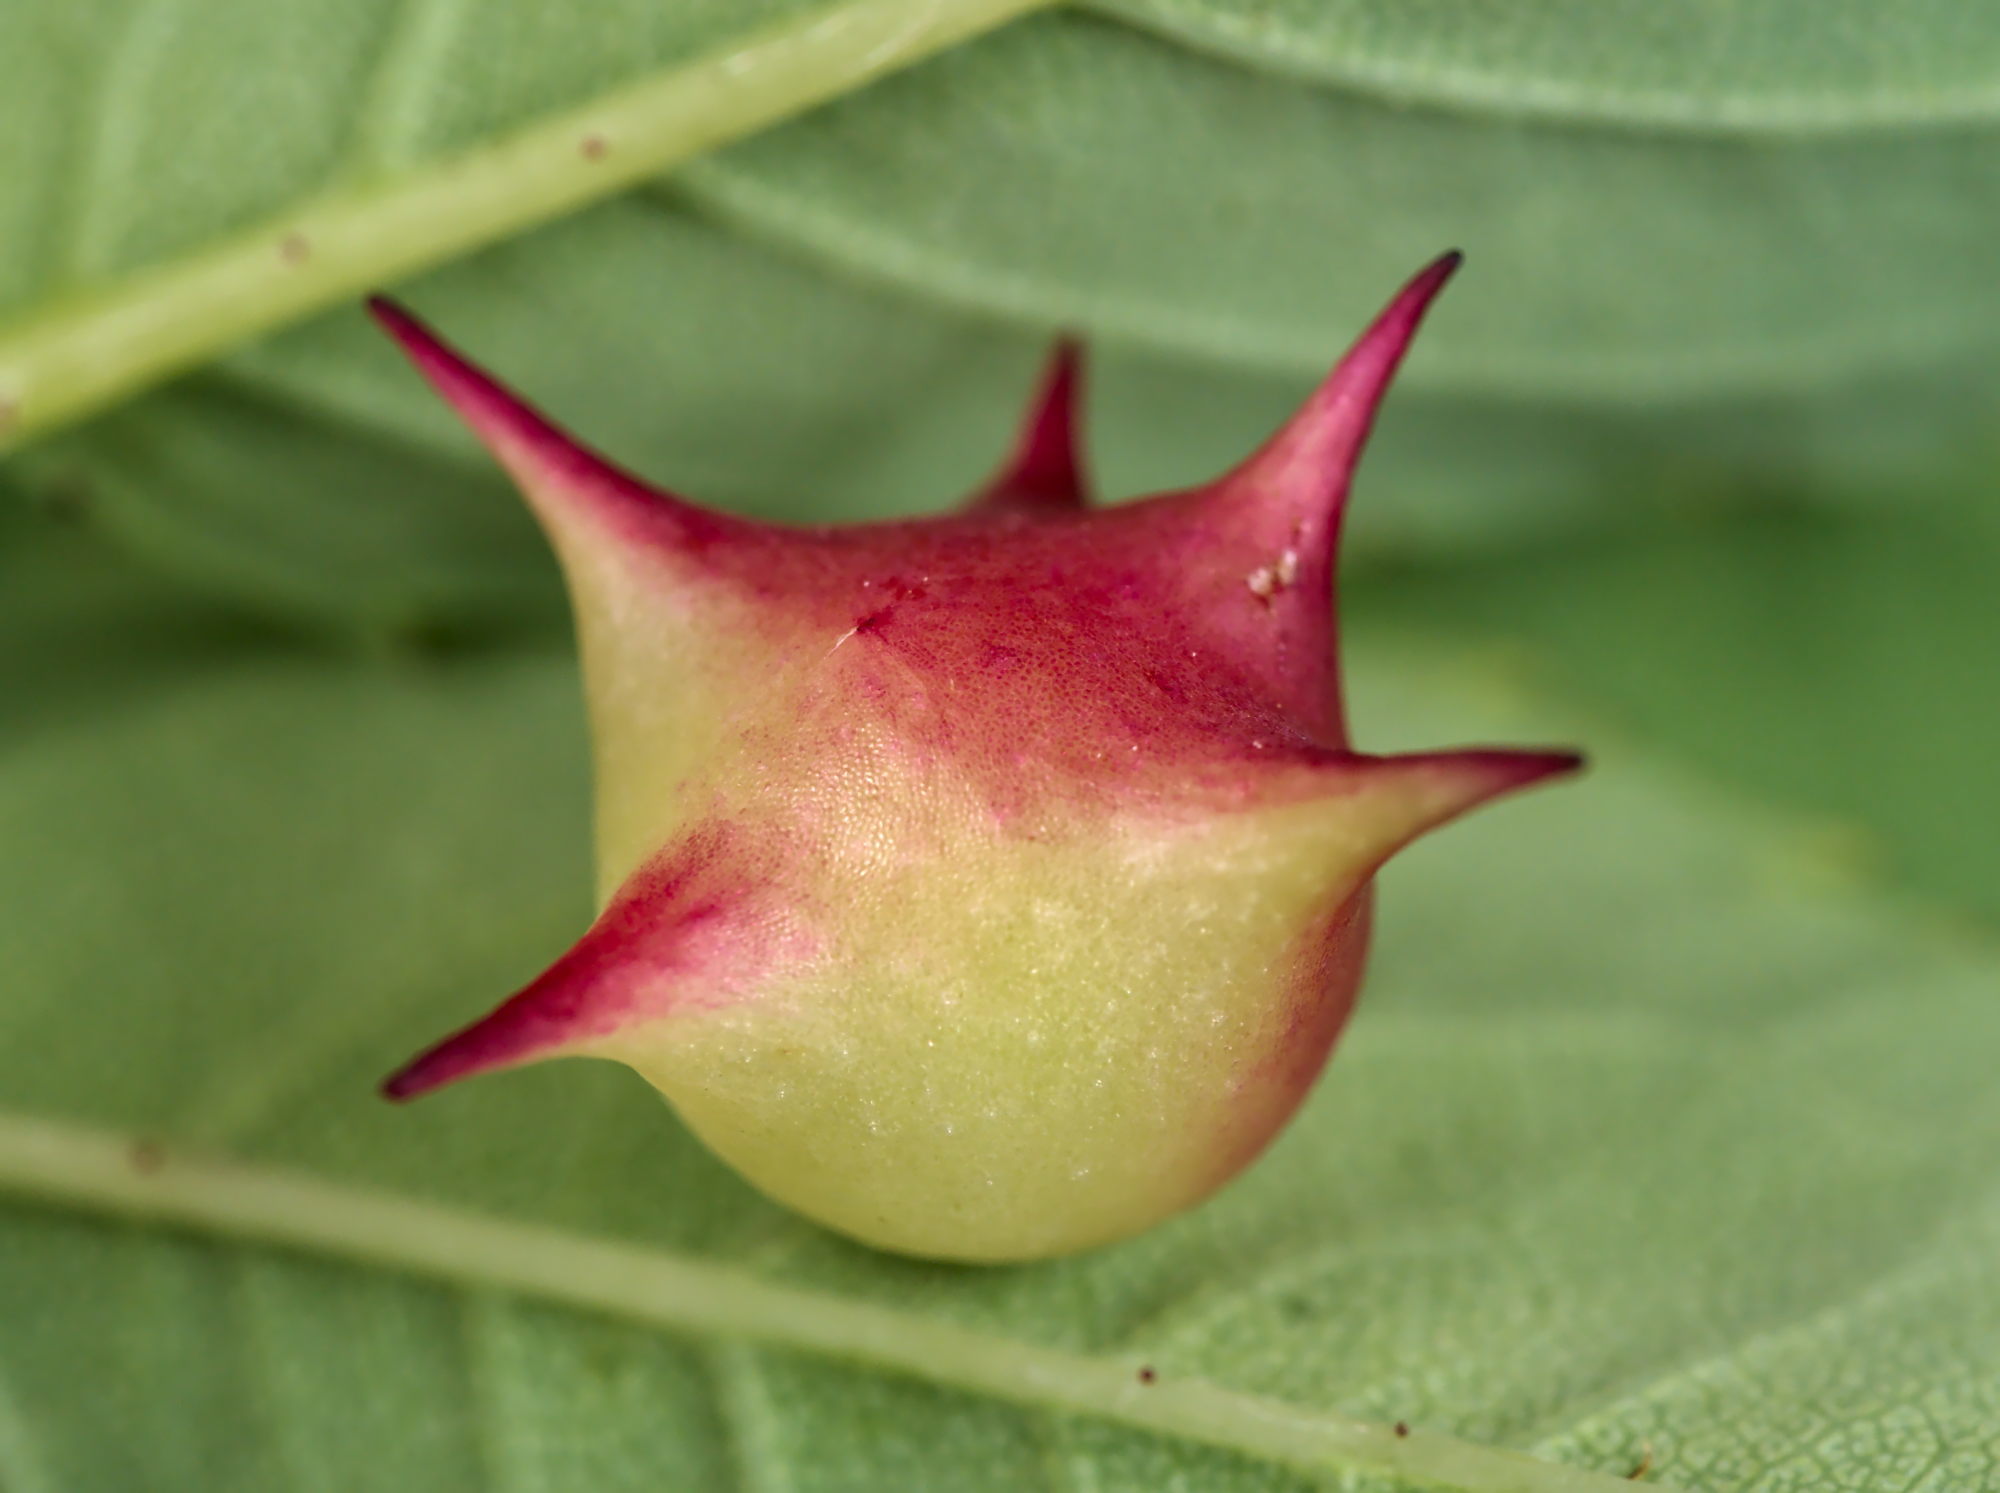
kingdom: Animalia
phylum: Arthropoda
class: Insecta
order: Hymenoptera
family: Cynipidae
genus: Diplolepis
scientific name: Diplolepis nervosa
